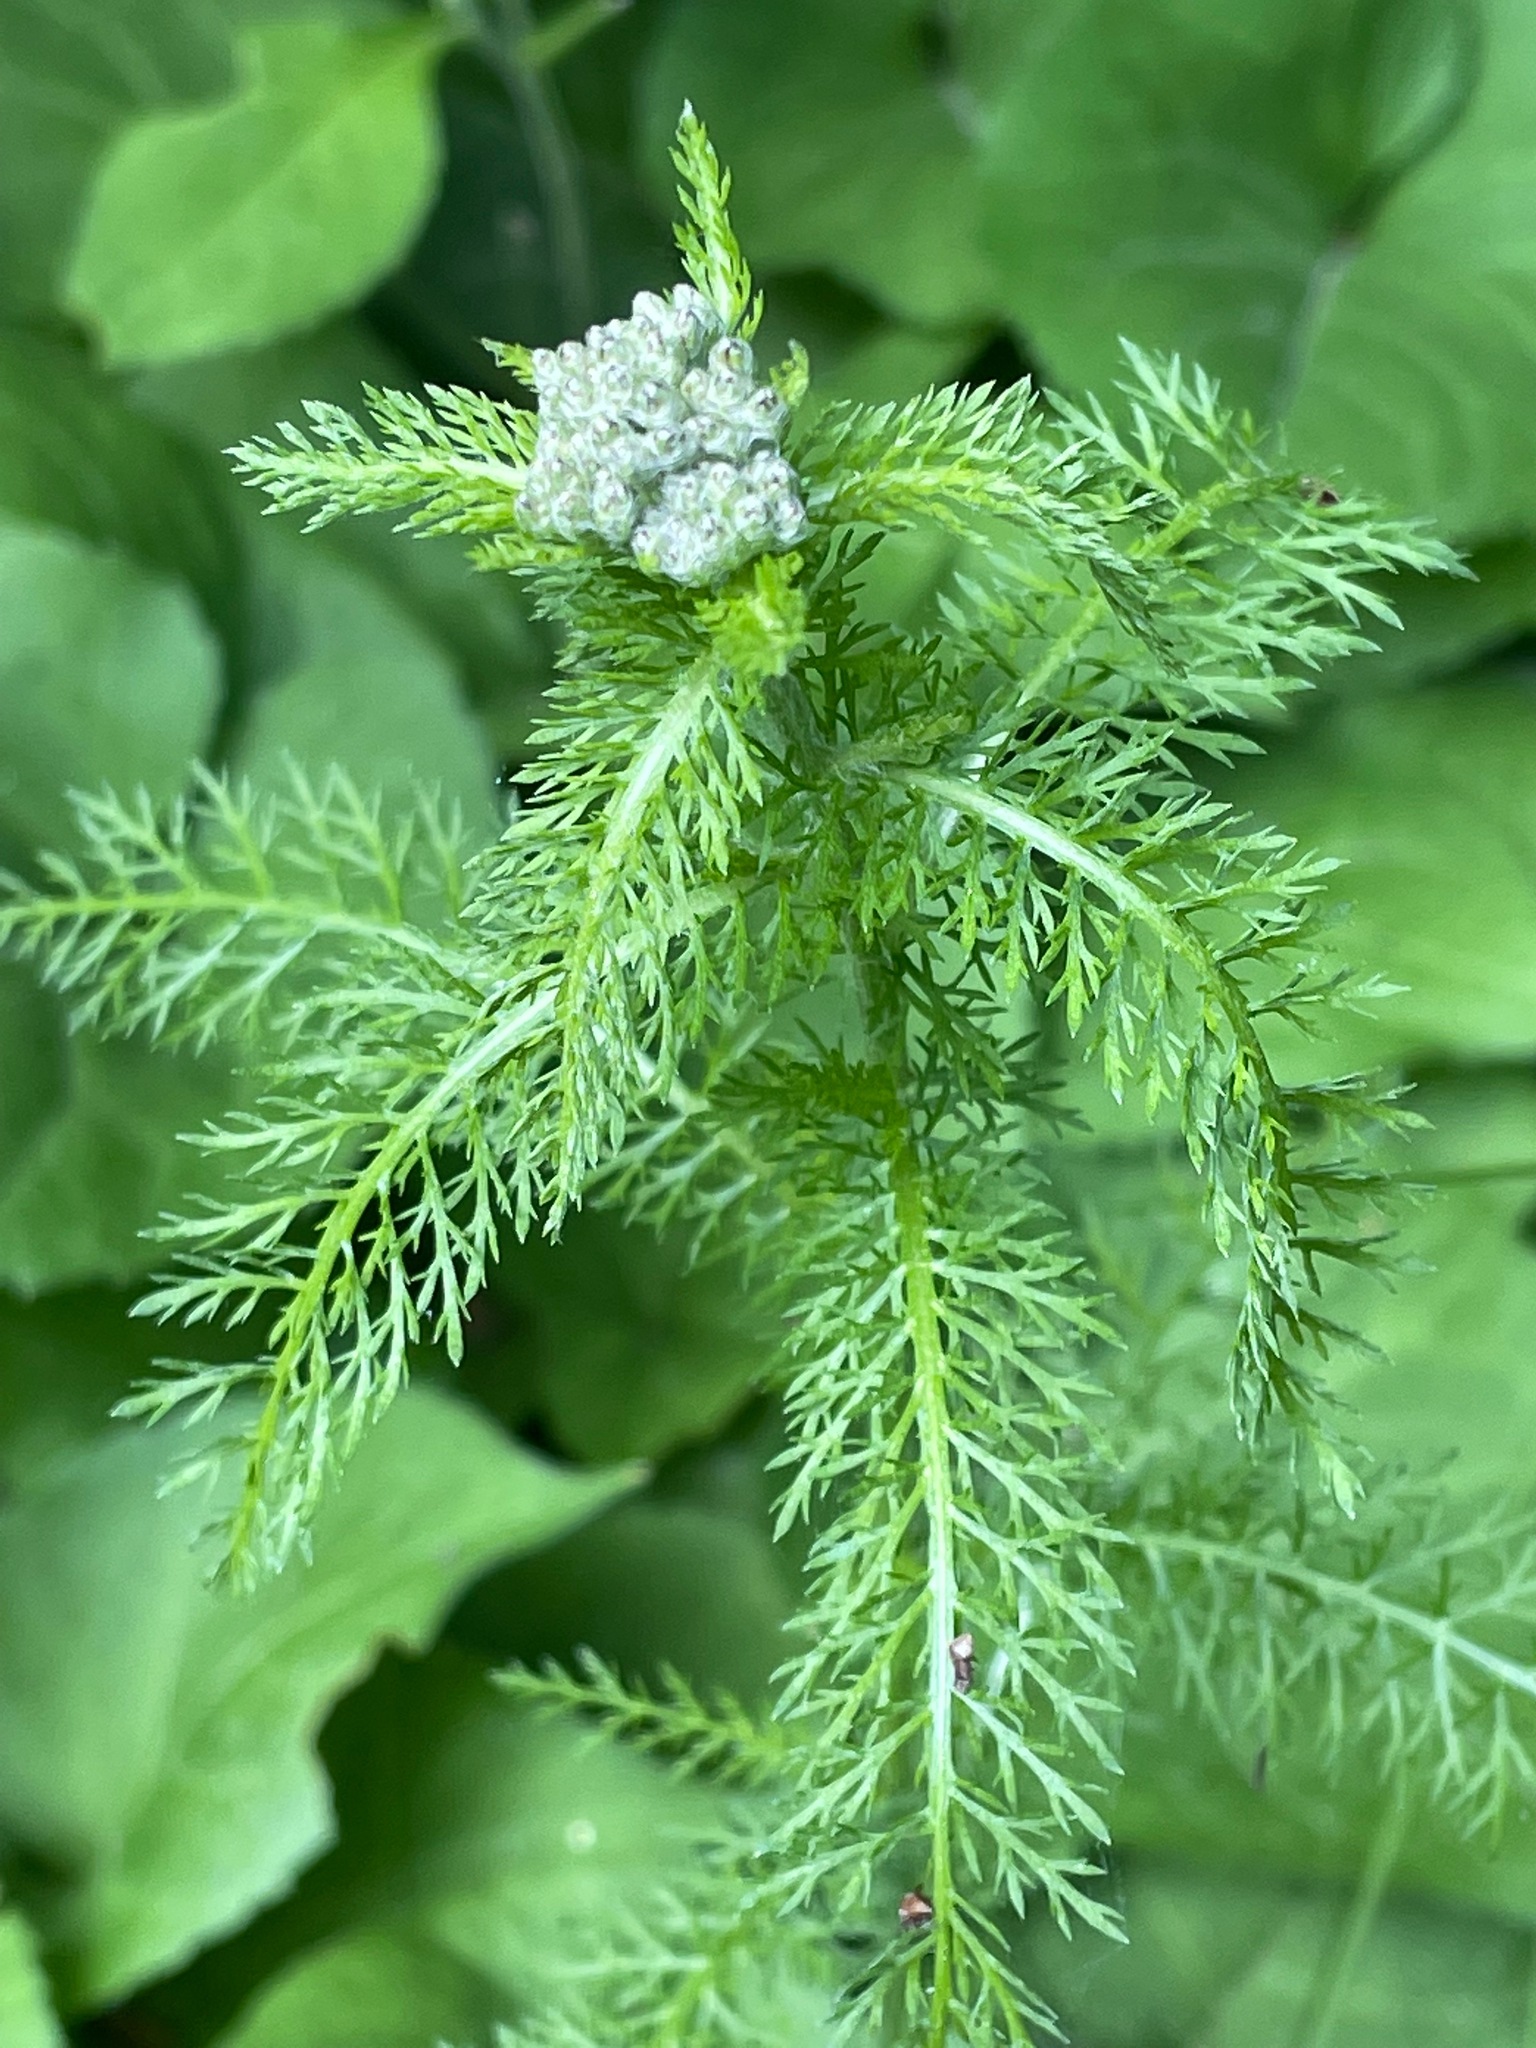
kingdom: Plantae
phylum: Tracheophyta
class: Magnoliopsida
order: Asterales
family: Asteraceae
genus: Achillea
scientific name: Achillea millefolium
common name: Yarrow
